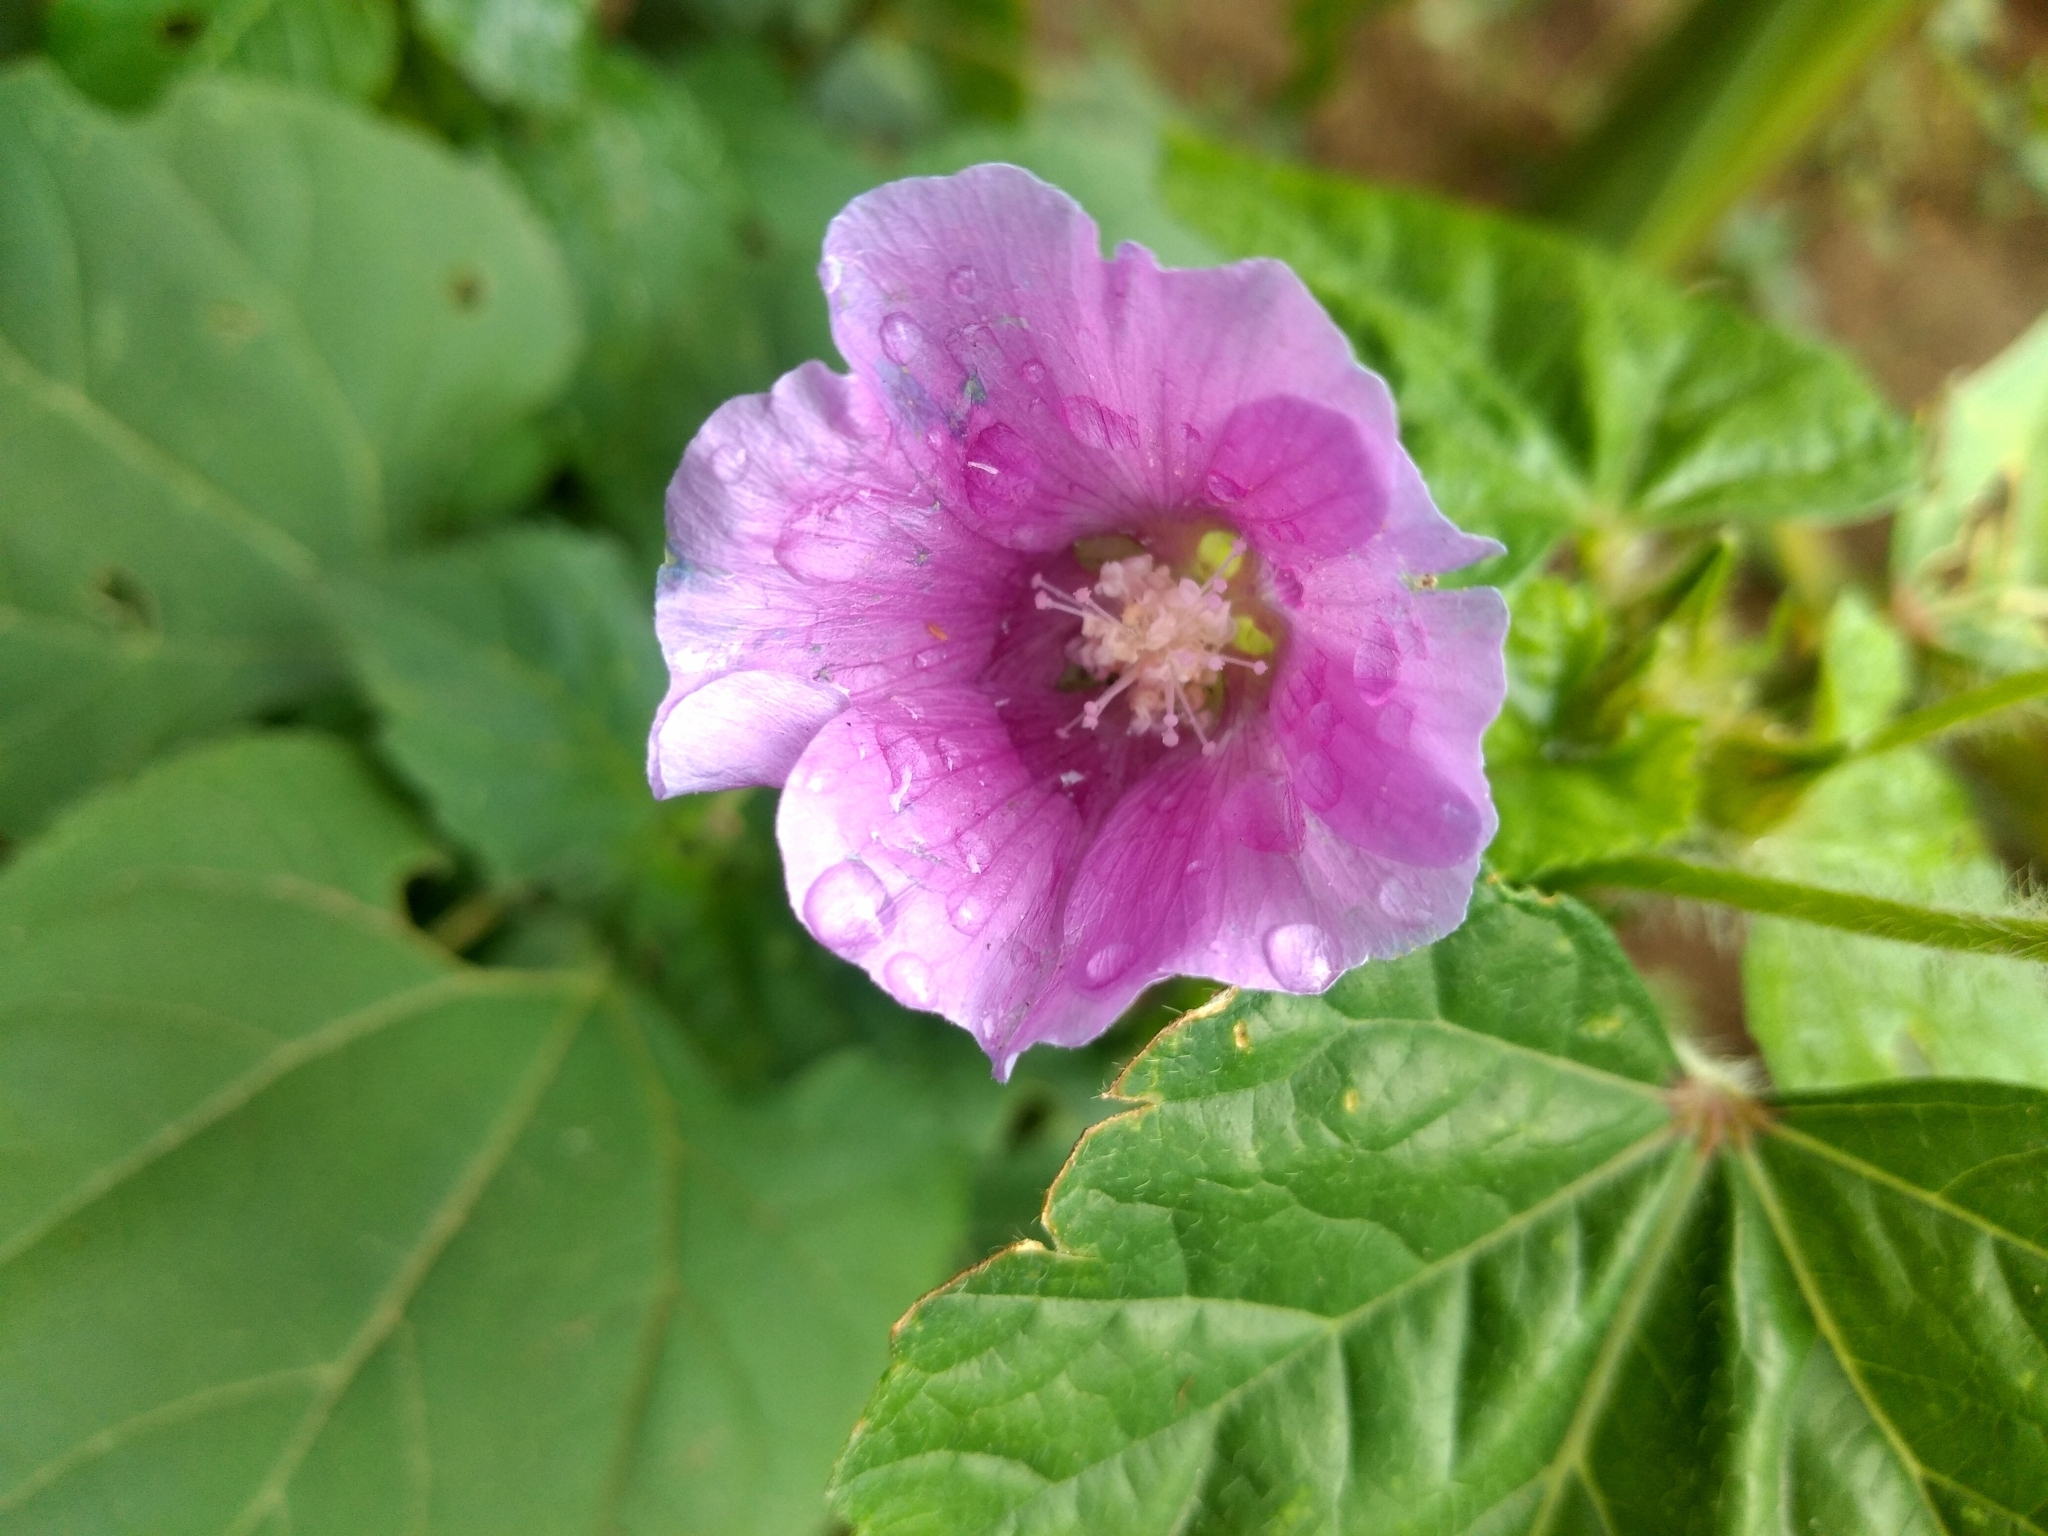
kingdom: Plantae
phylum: Tracheophyta
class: Magnoliopsida
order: Malvales
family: Malvaceae
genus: Anoda
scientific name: Anoda cristata
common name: Spurred anoda
